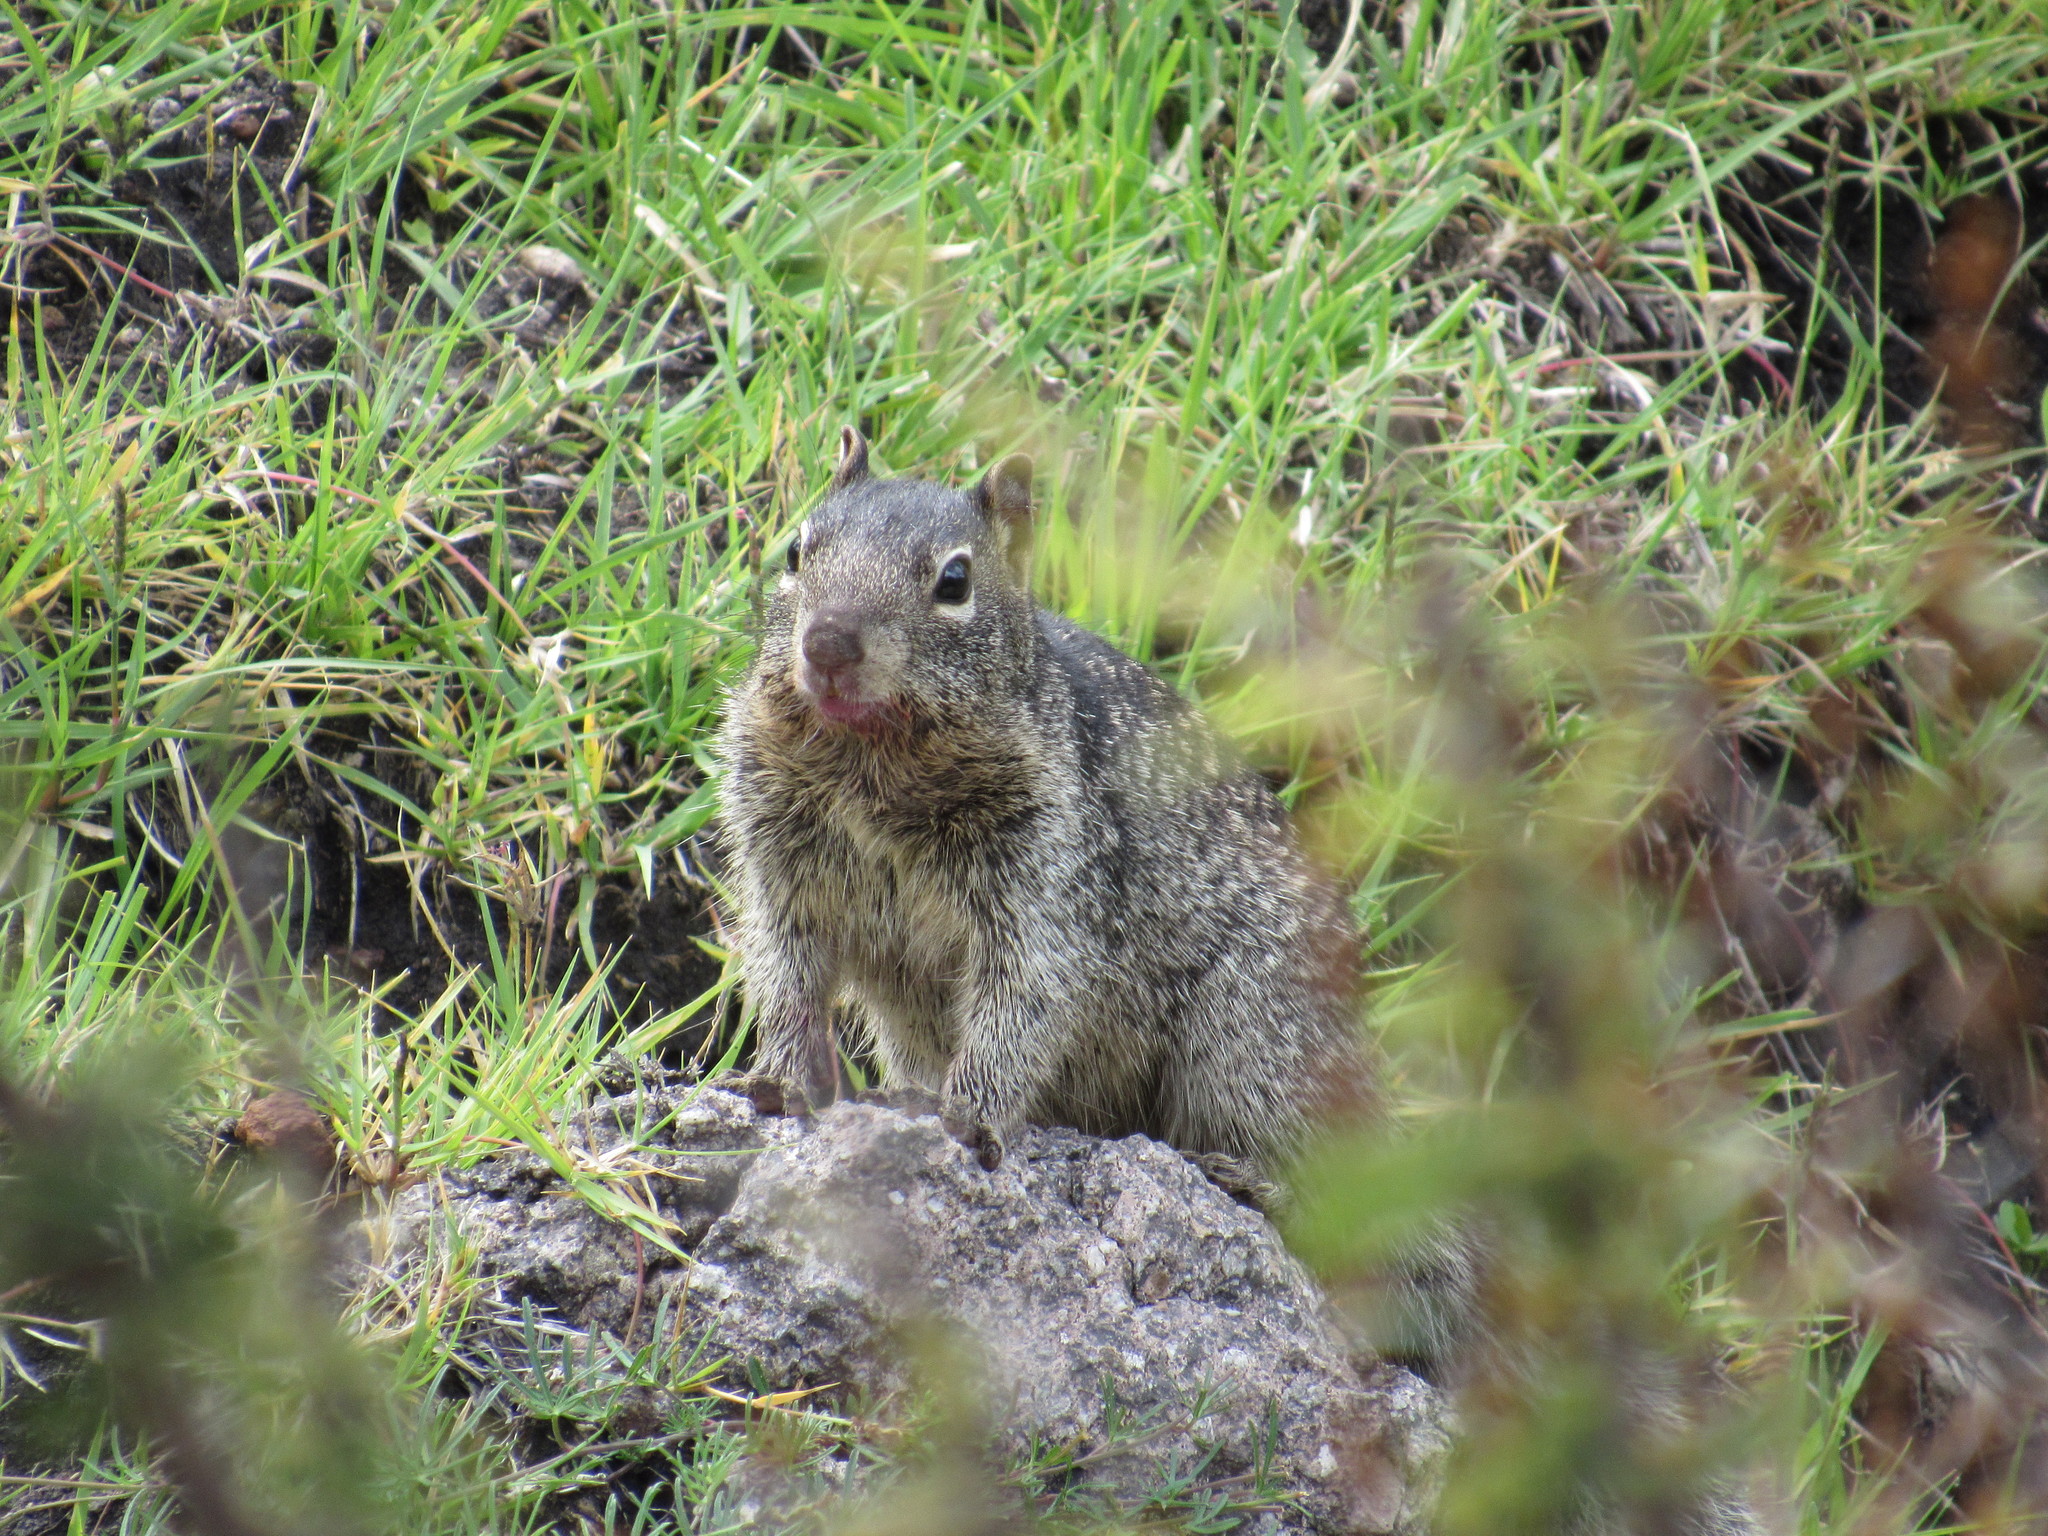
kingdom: Animalia
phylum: Chordata
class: Mammalia
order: Rodentia
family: Sciuridae
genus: Otospermophilus
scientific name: Otospermophilus variegatus
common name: Rock squirrel
